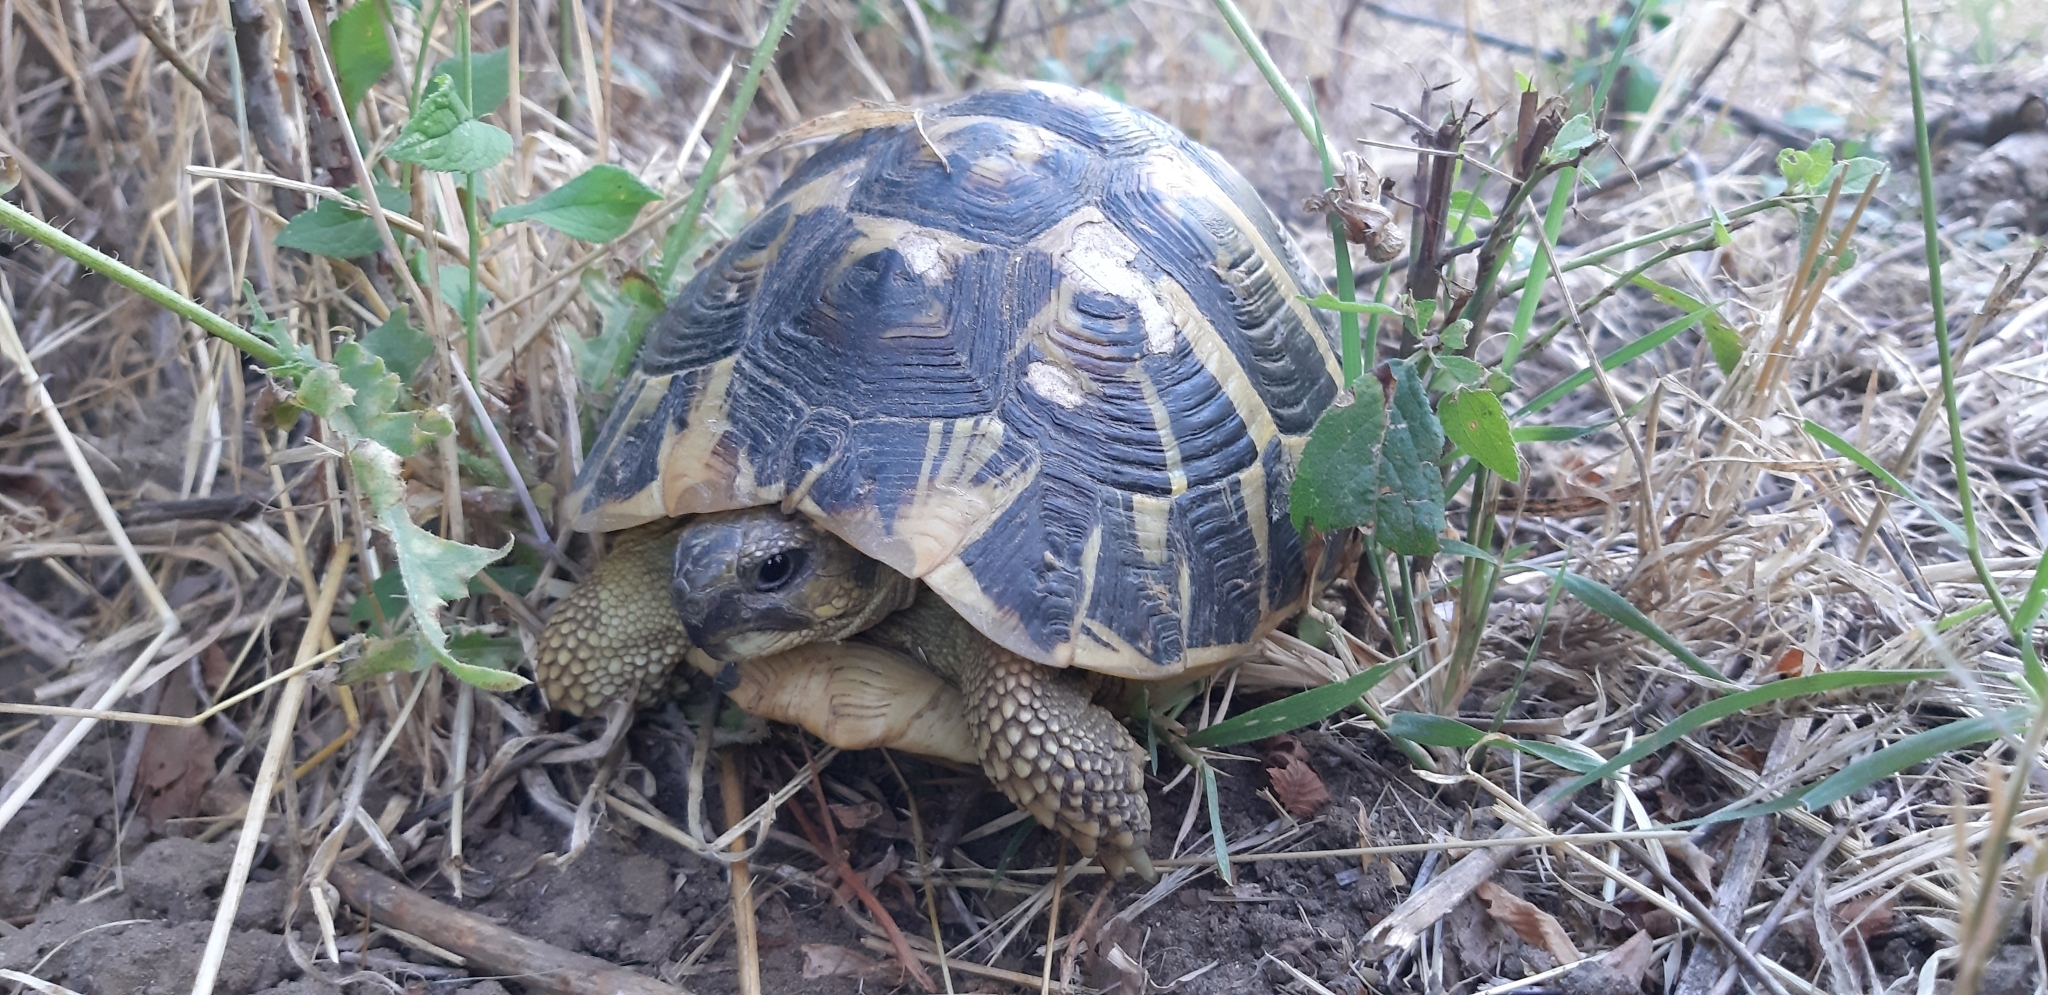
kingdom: Animalia
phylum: Chordata
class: Testudines
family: Testudinidae
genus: Testudo
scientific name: Testudo hermanni
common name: Hermann's tortoise
